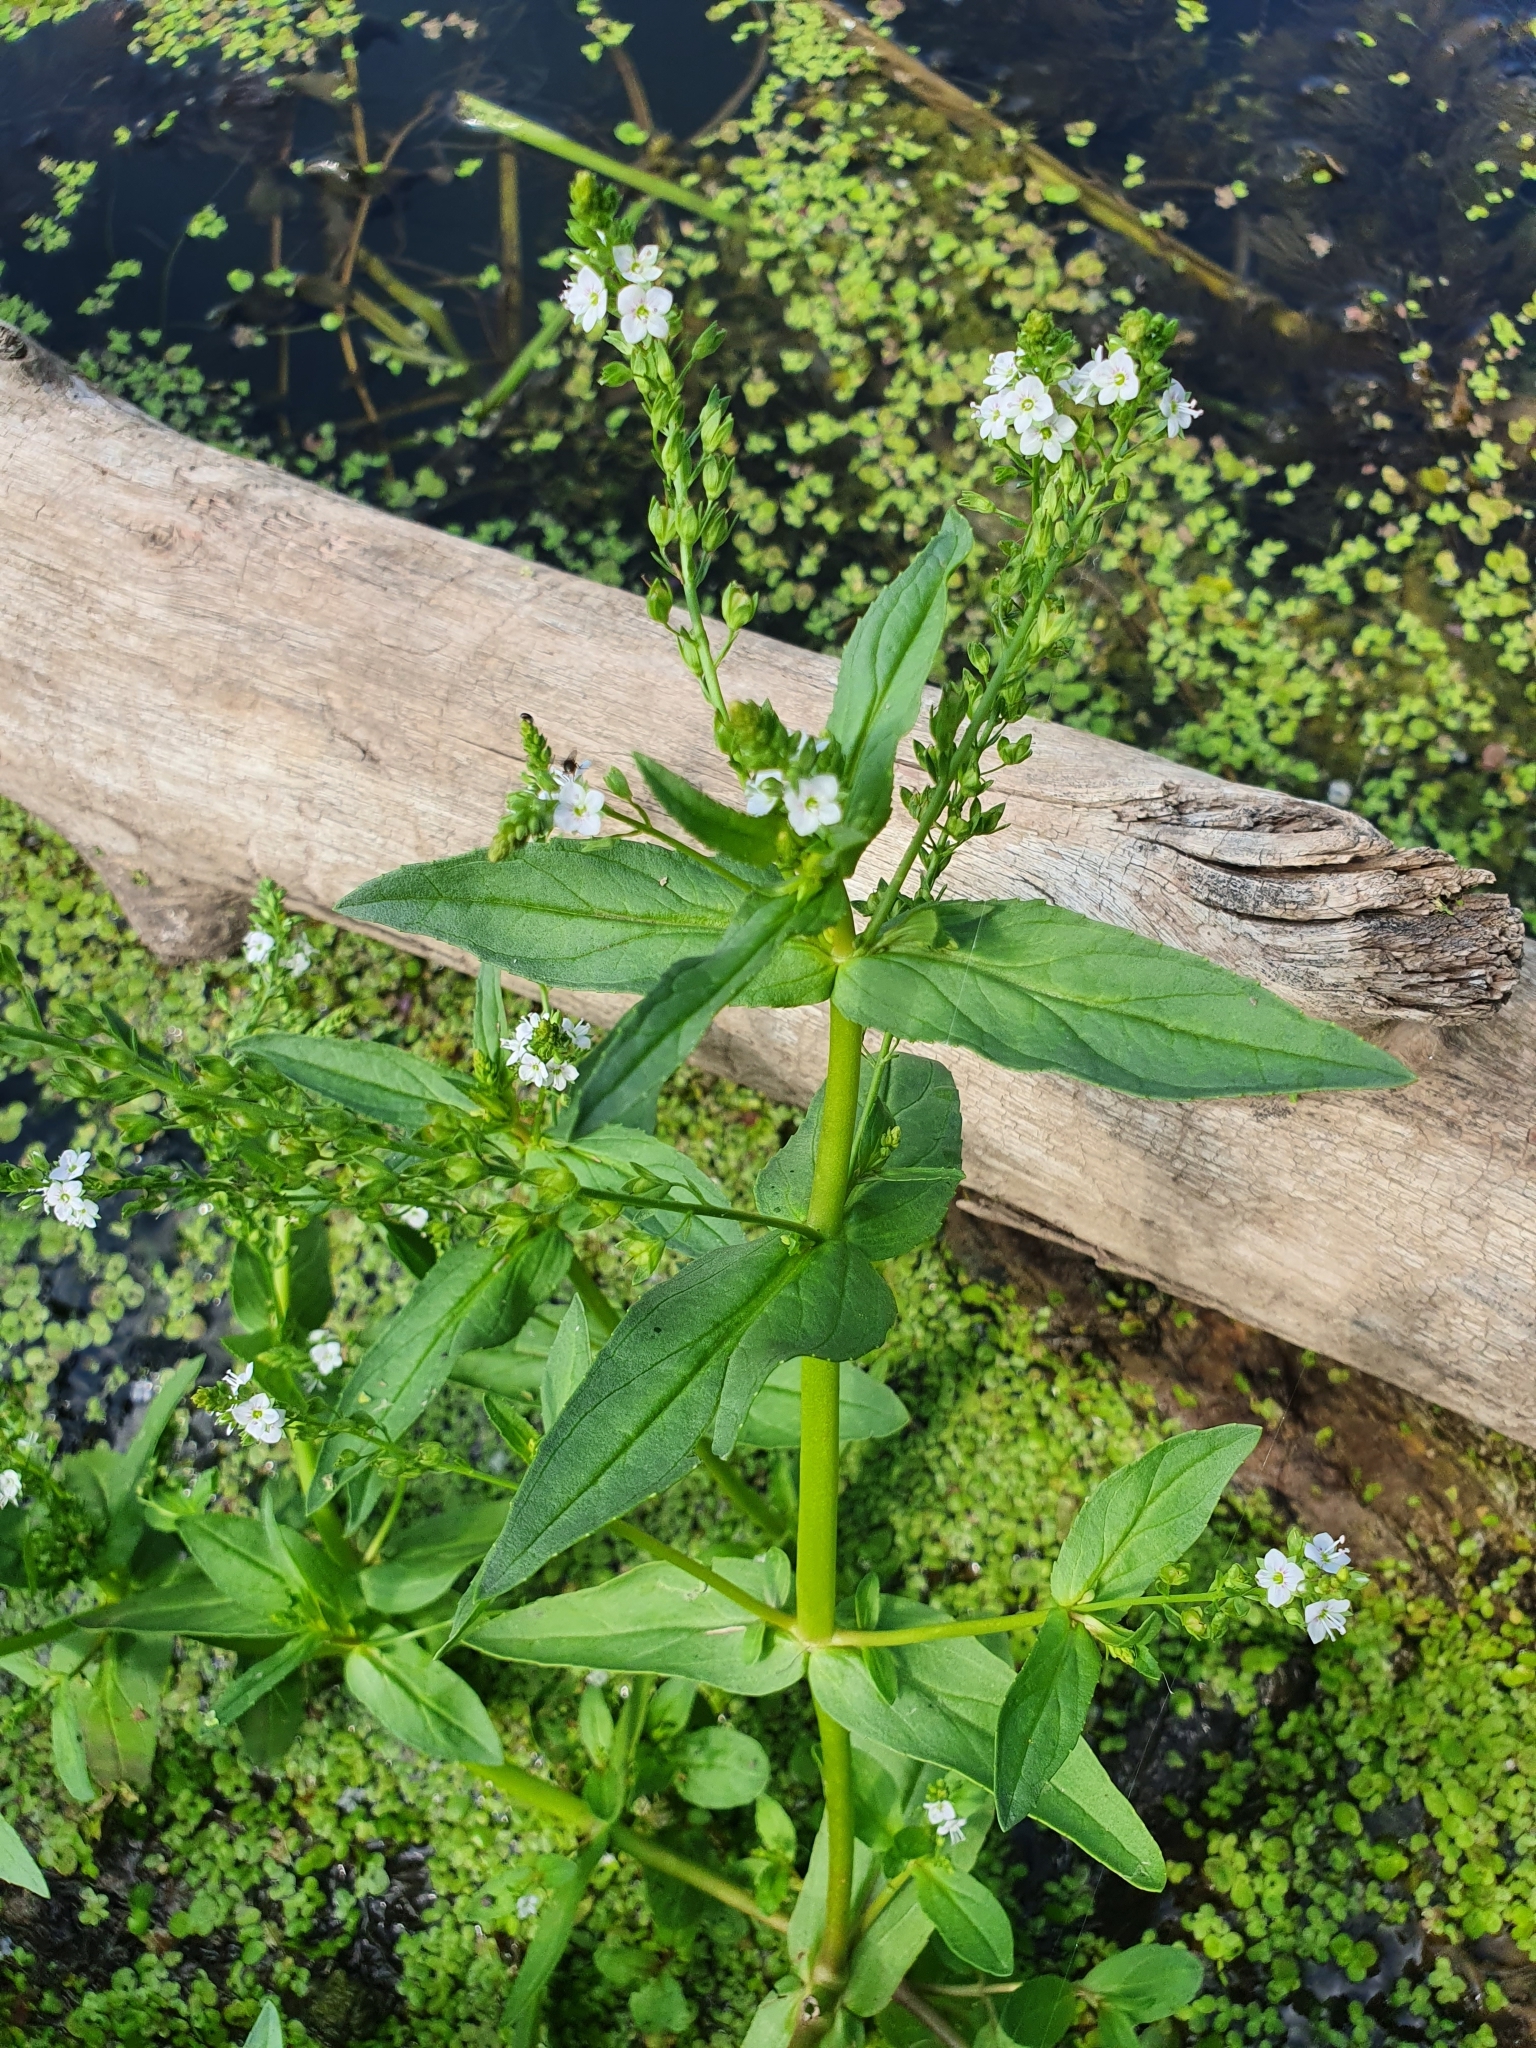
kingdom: Plantae
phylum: Tracheophyta
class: Magnoliopsida
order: Lamiales
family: Plantaginaceae
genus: Veronica
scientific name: Veronica anagallis-aquatica
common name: Water speedwell
